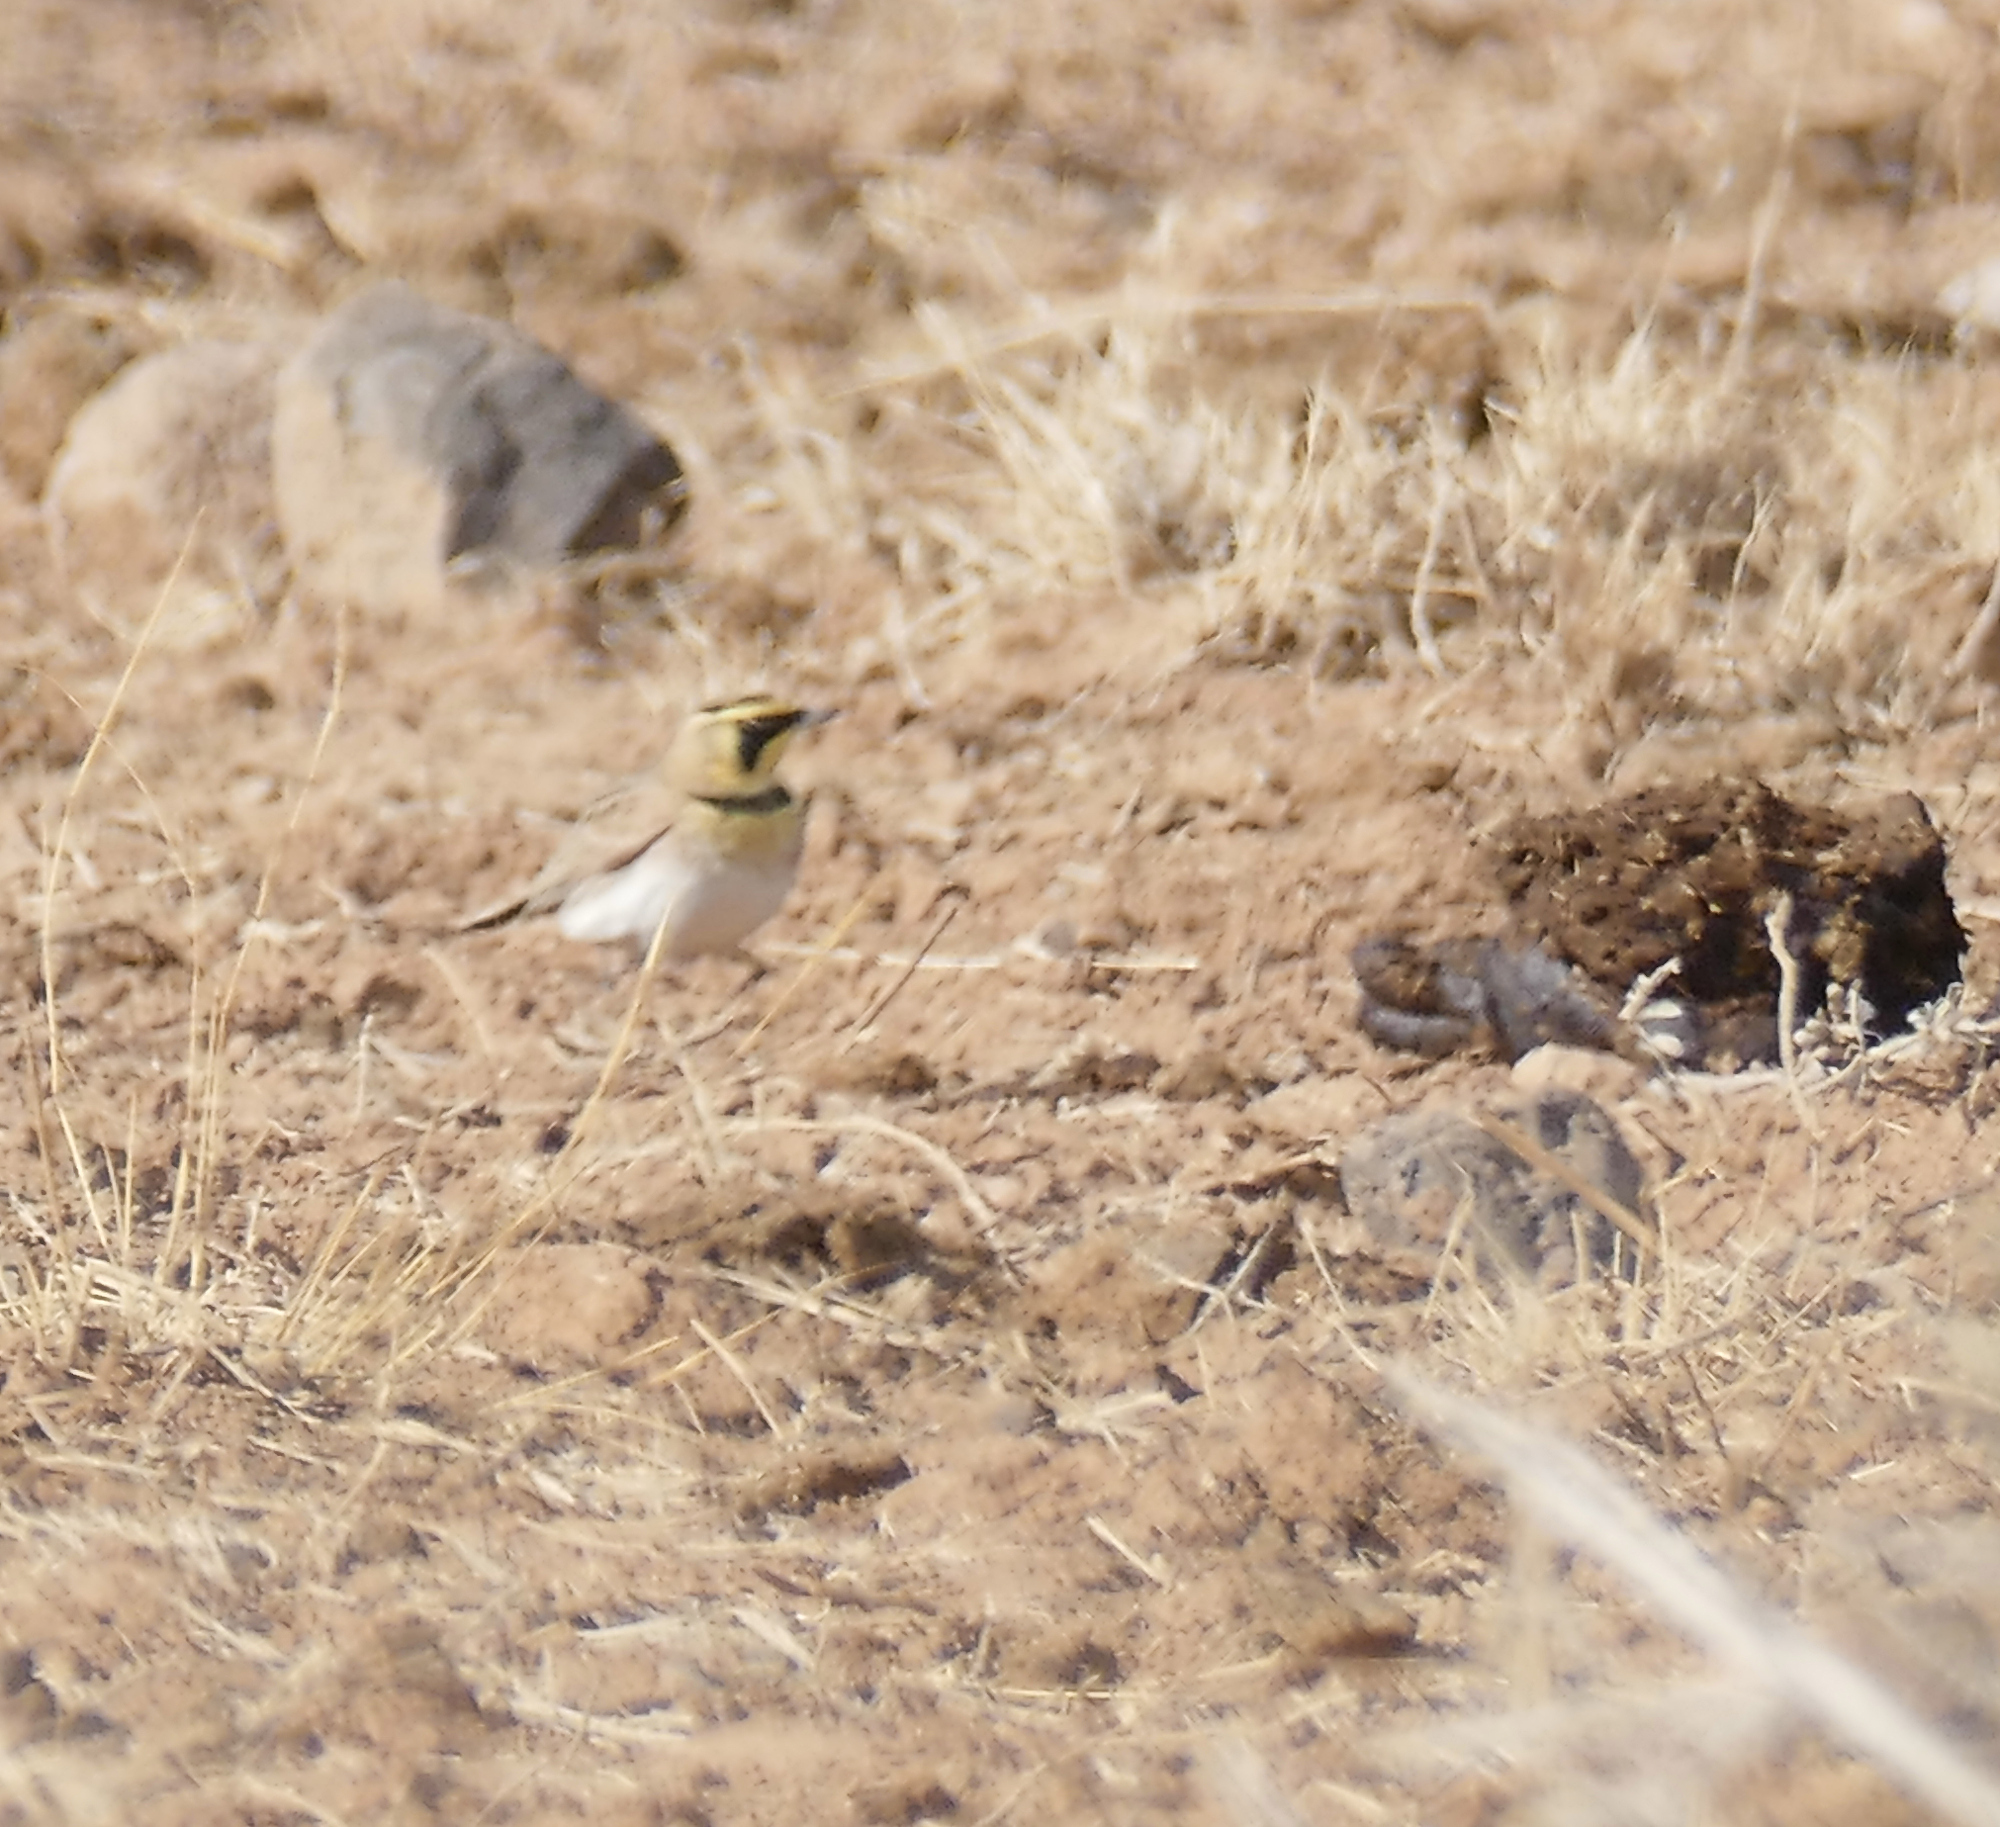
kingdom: Animalia
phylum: Chordata
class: Aves
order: Passeriformes
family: Alaudidae
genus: Eremophila
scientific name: Eremophila alpestris
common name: Horned lark
